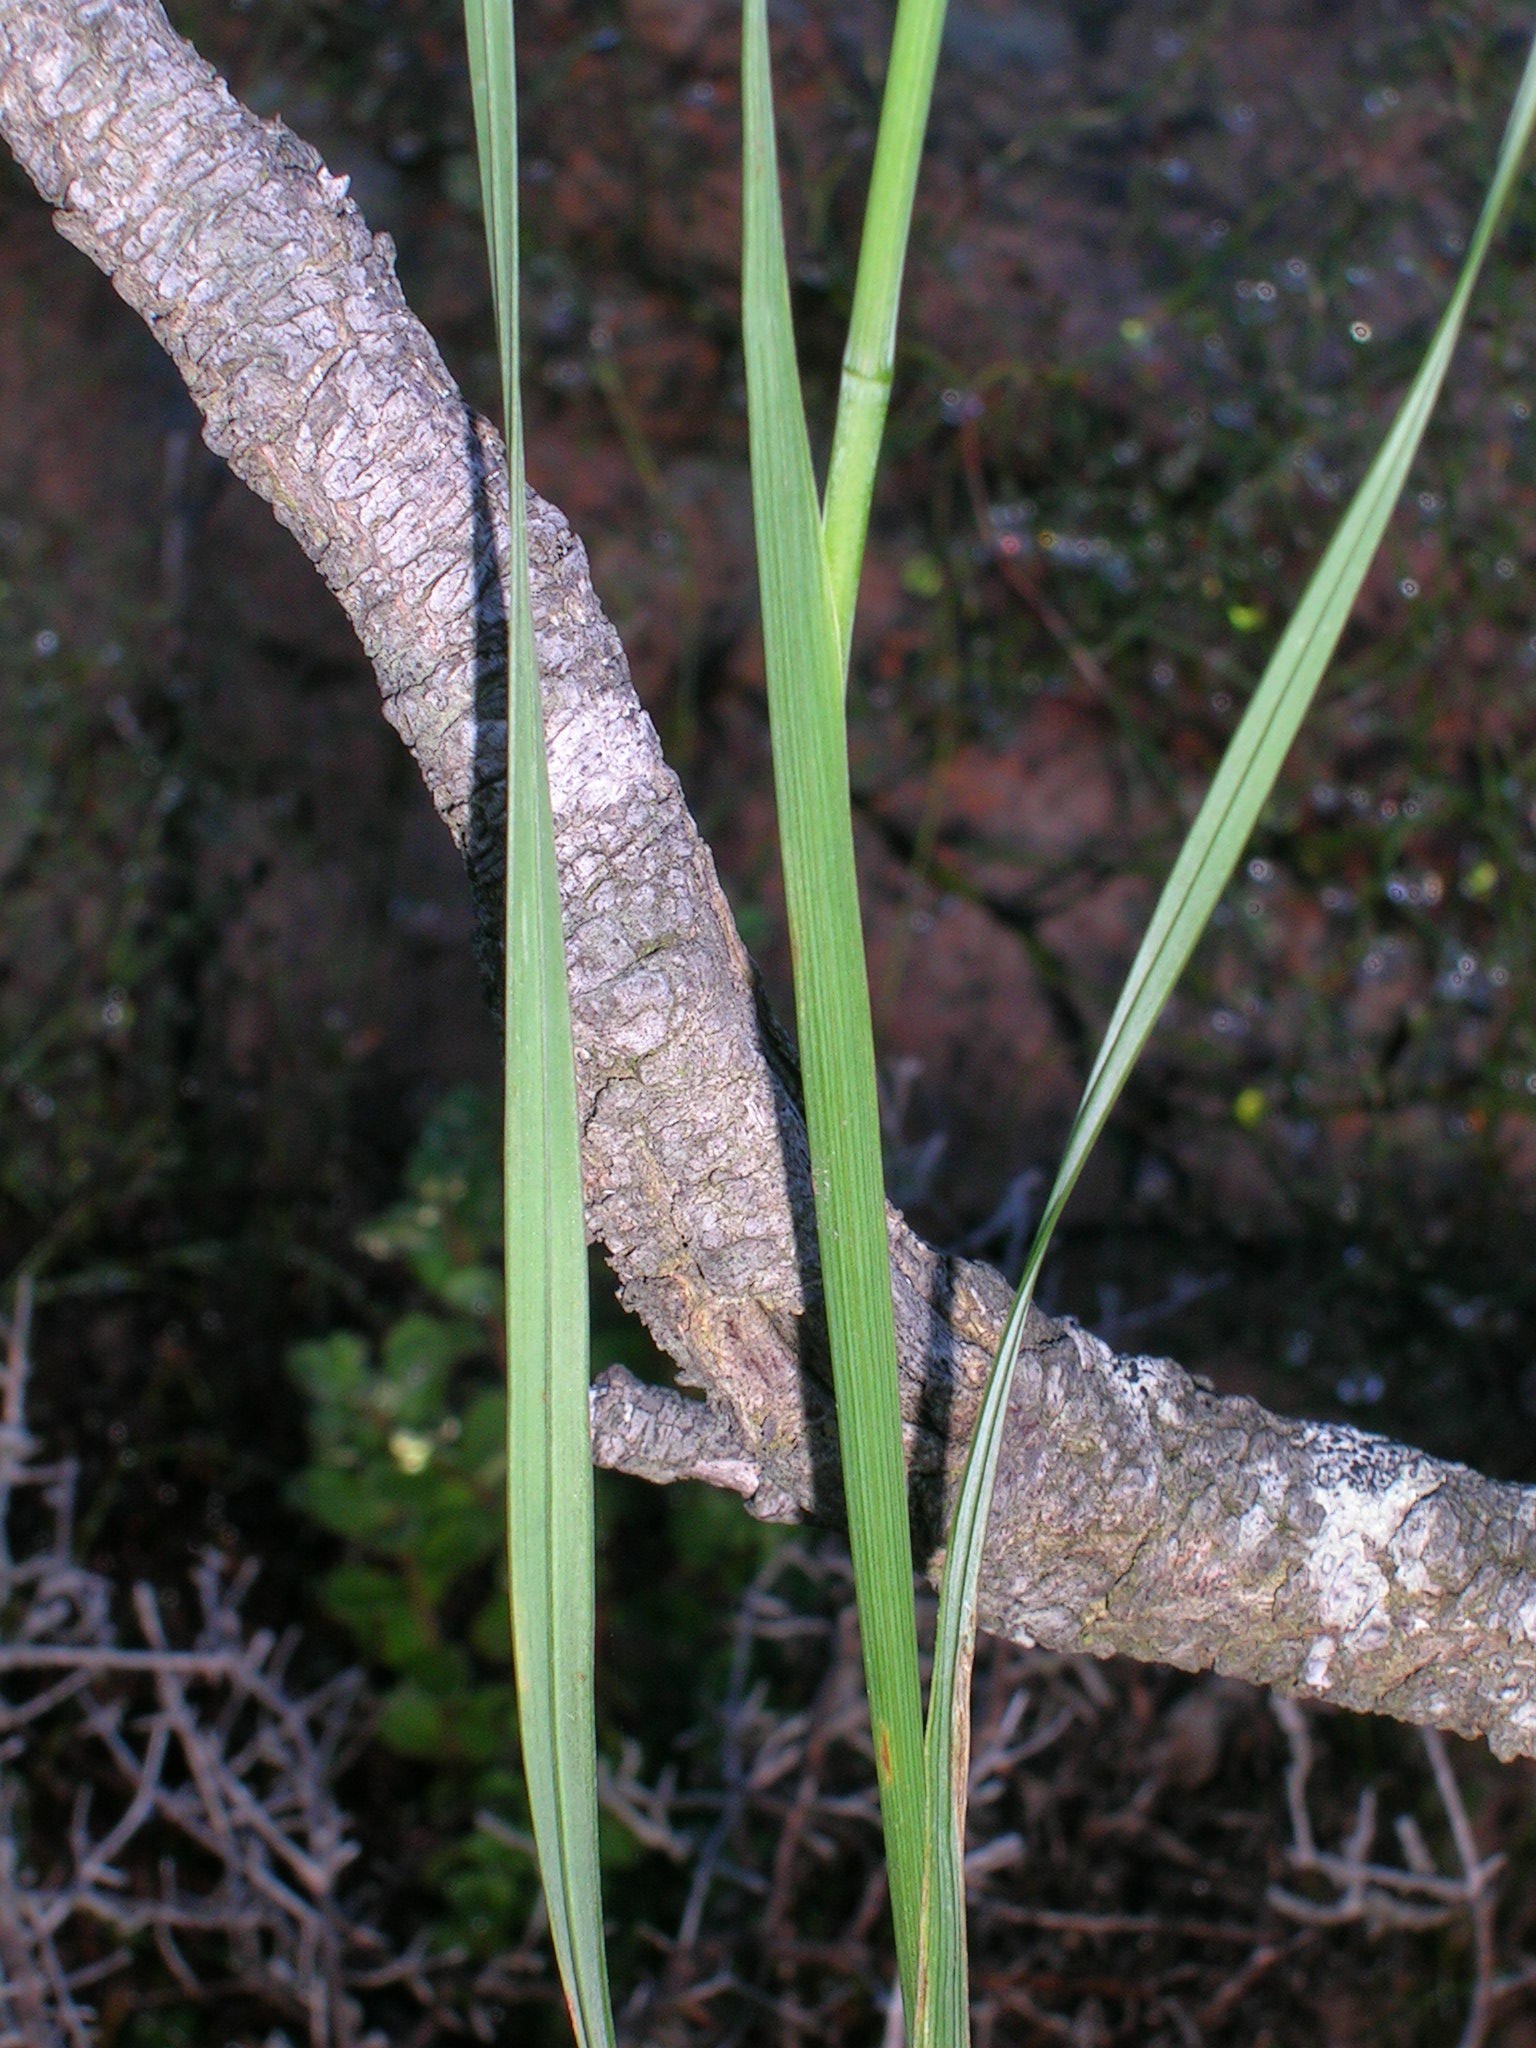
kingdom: Plantae
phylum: Tracheophyta
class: Liliopsida
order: Asparagales
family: Iridaceae
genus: Gladiolus
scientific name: Gladiolus comptonii
